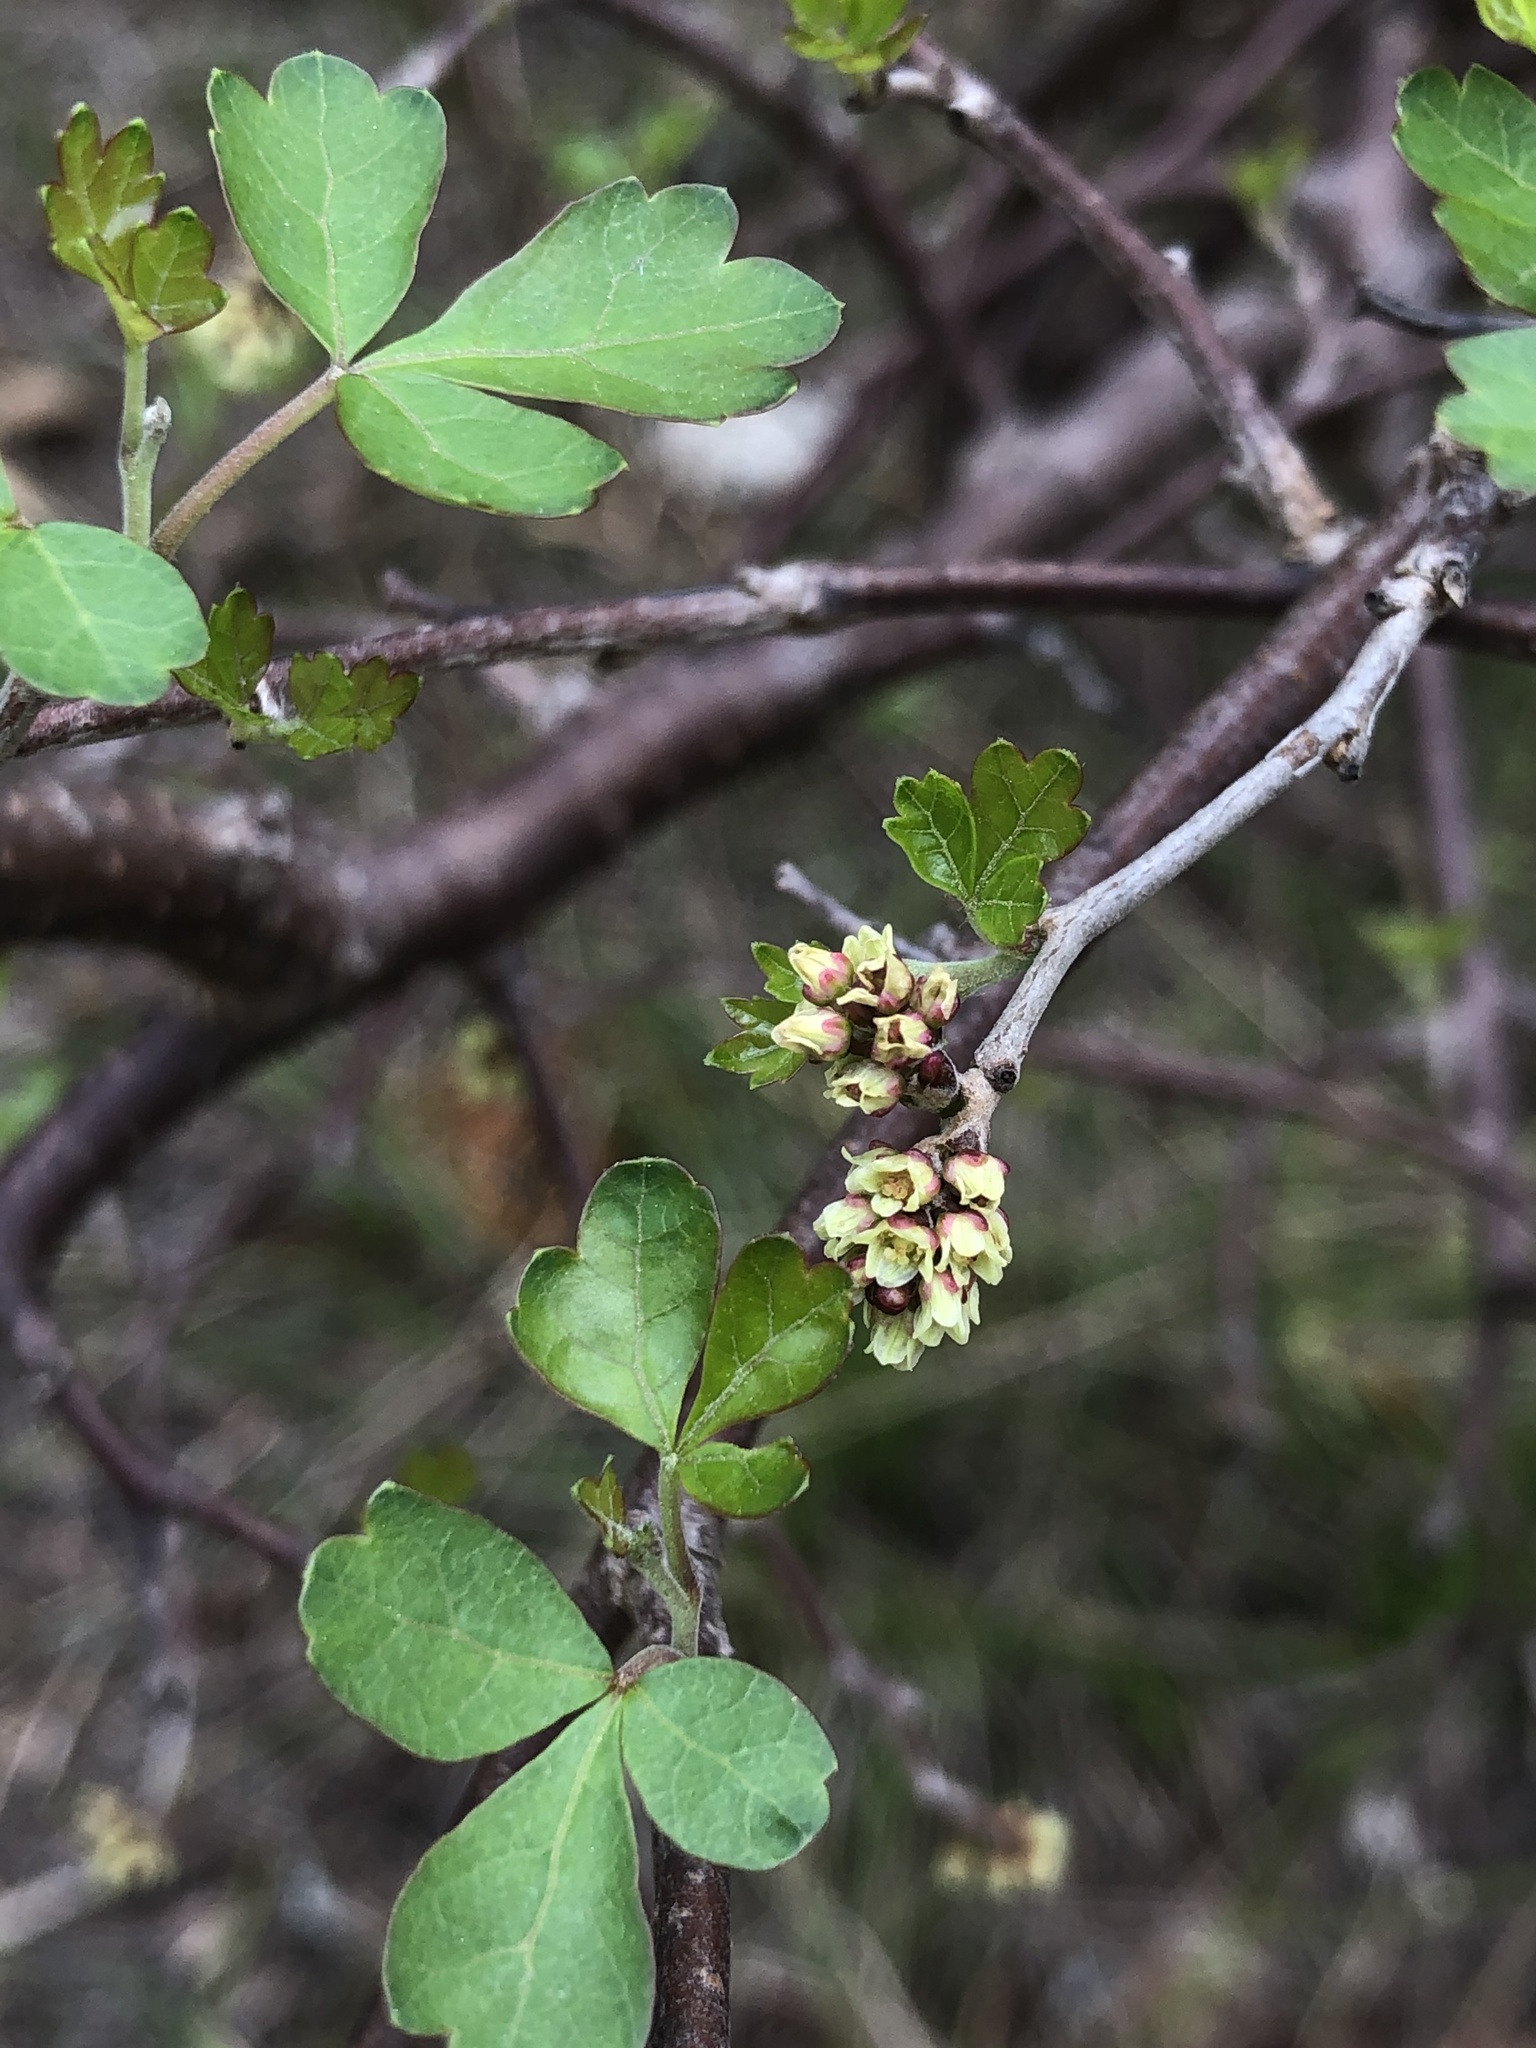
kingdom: Plantae
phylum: Tracheophyta
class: Magnoliopsida
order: Sapindales
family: Anacardiaceae
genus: Rhus
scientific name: Rhus aromatica
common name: Aromatic sumac
